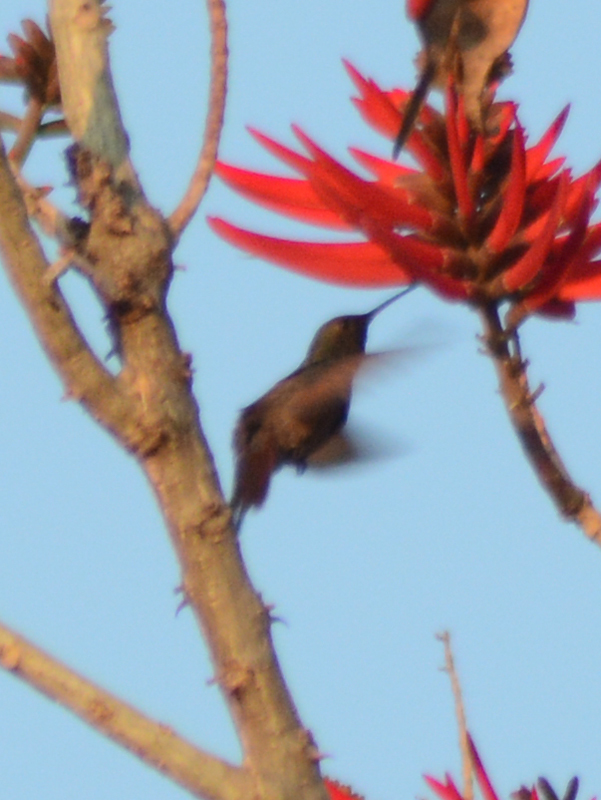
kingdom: Animalia
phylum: Chordata
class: Aves
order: Apodiformes
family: Trochilidae
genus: Saucerottia
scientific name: Saucerottia beryllina
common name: Berylline hummingbird
